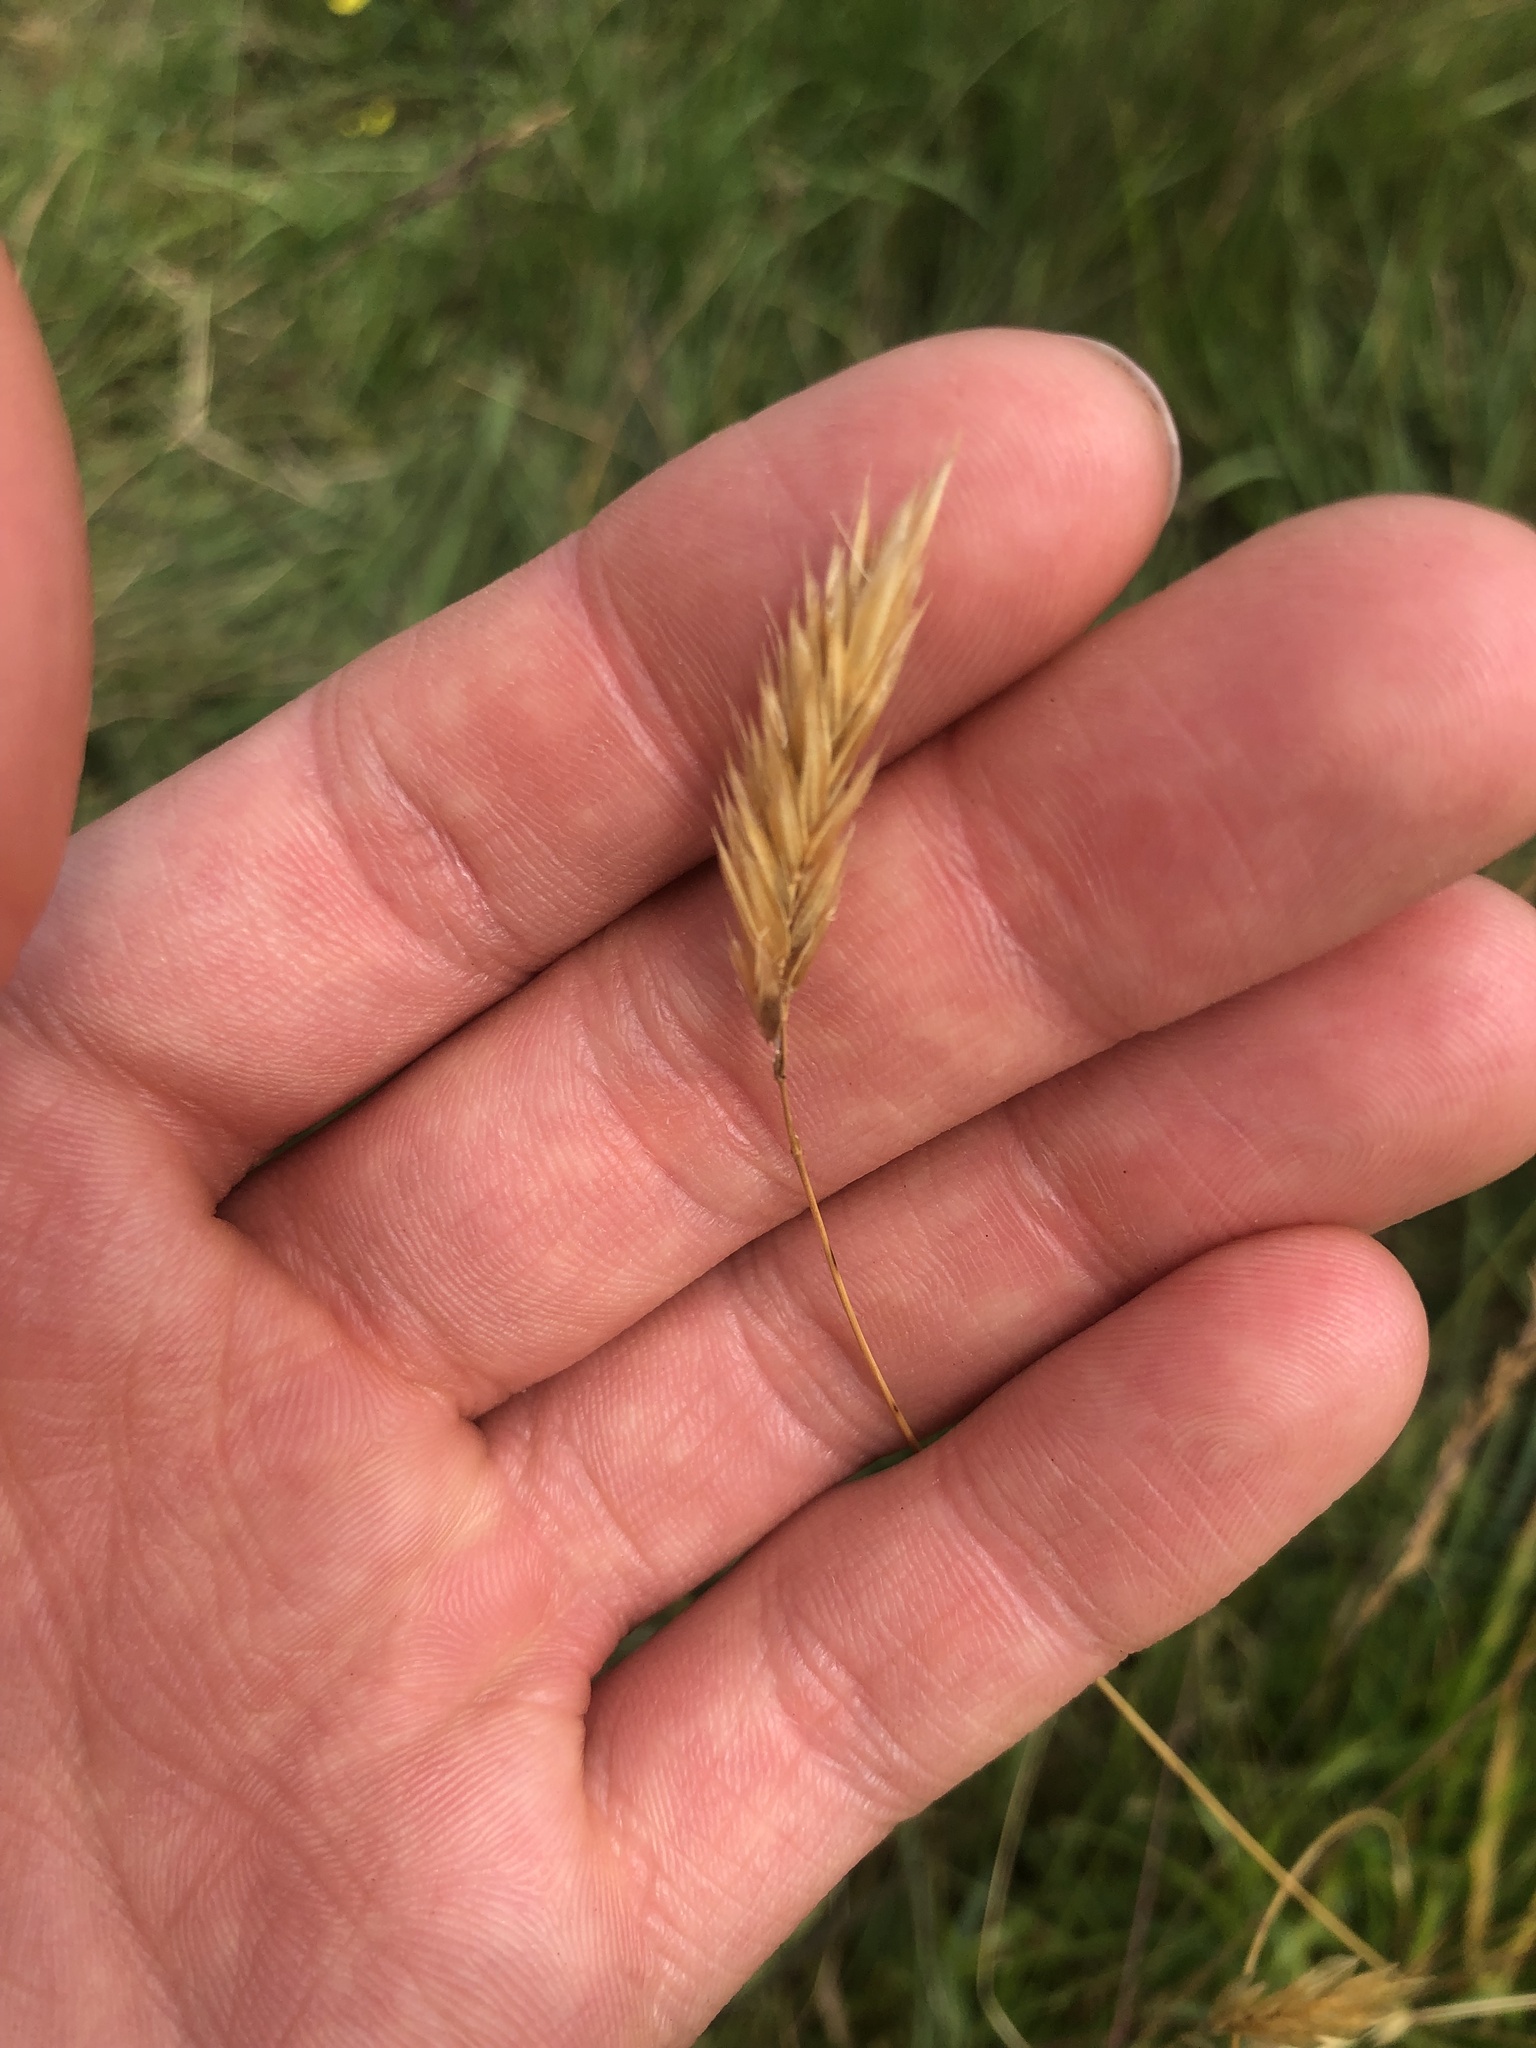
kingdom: Plantae
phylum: Tracheophyta
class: Liliopsida
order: Poales
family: Poaceae
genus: Anthoxanthum
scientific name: Anthoxanthum odoratum
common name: Sweet vernalgrass
